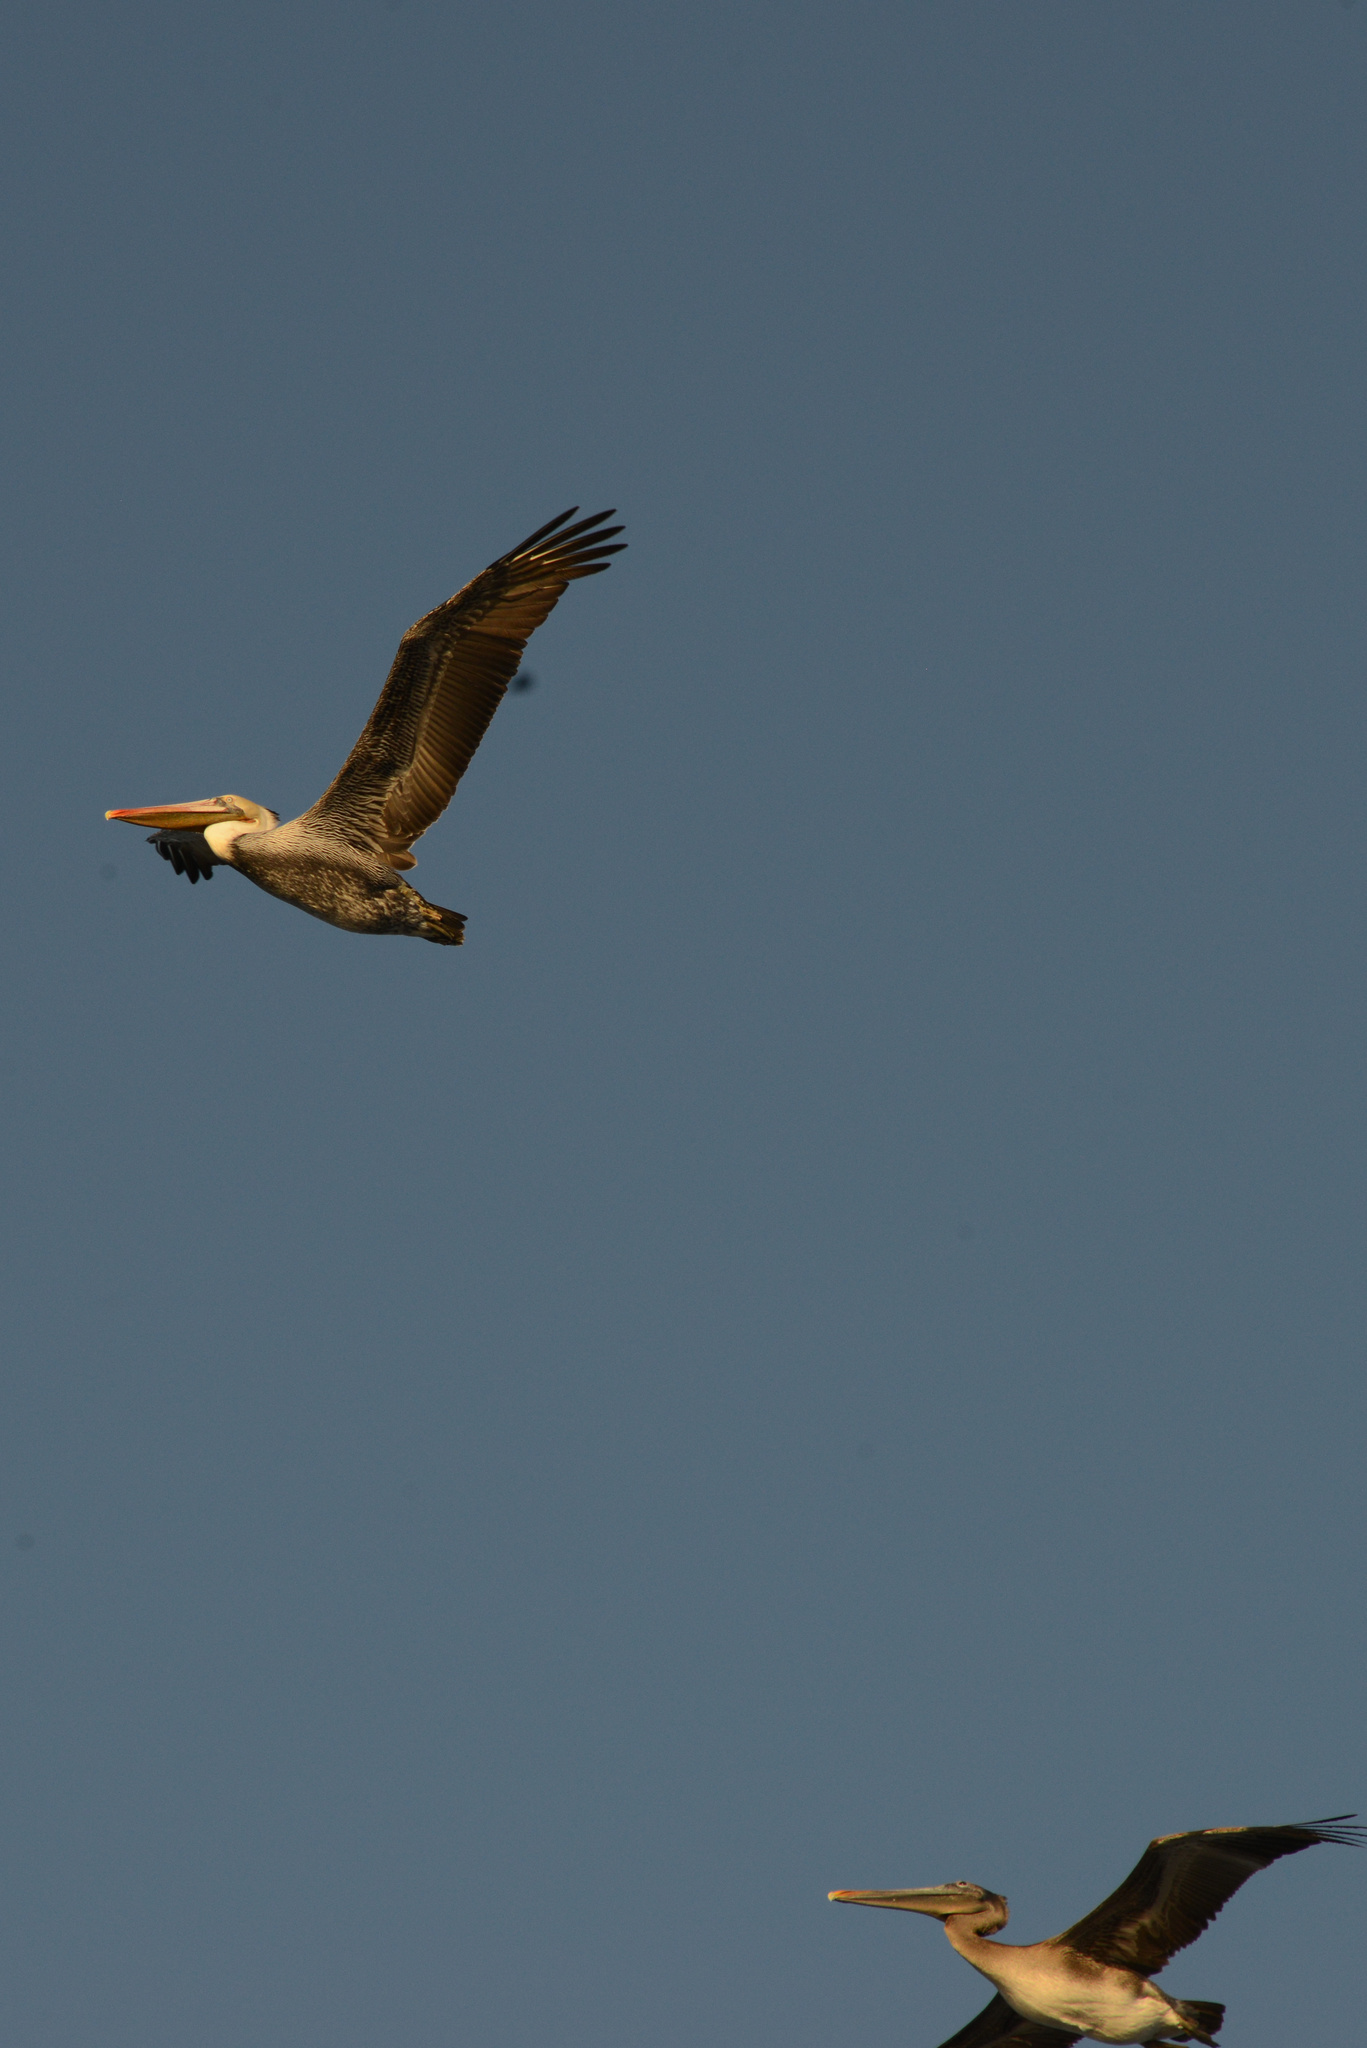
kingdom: Animalia
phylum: Chordata
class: Aves
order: Pelecaniformes
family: Pelecanidae
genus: Pelecanus
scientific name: Pelecanus occidentalis
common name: Brown pelican
